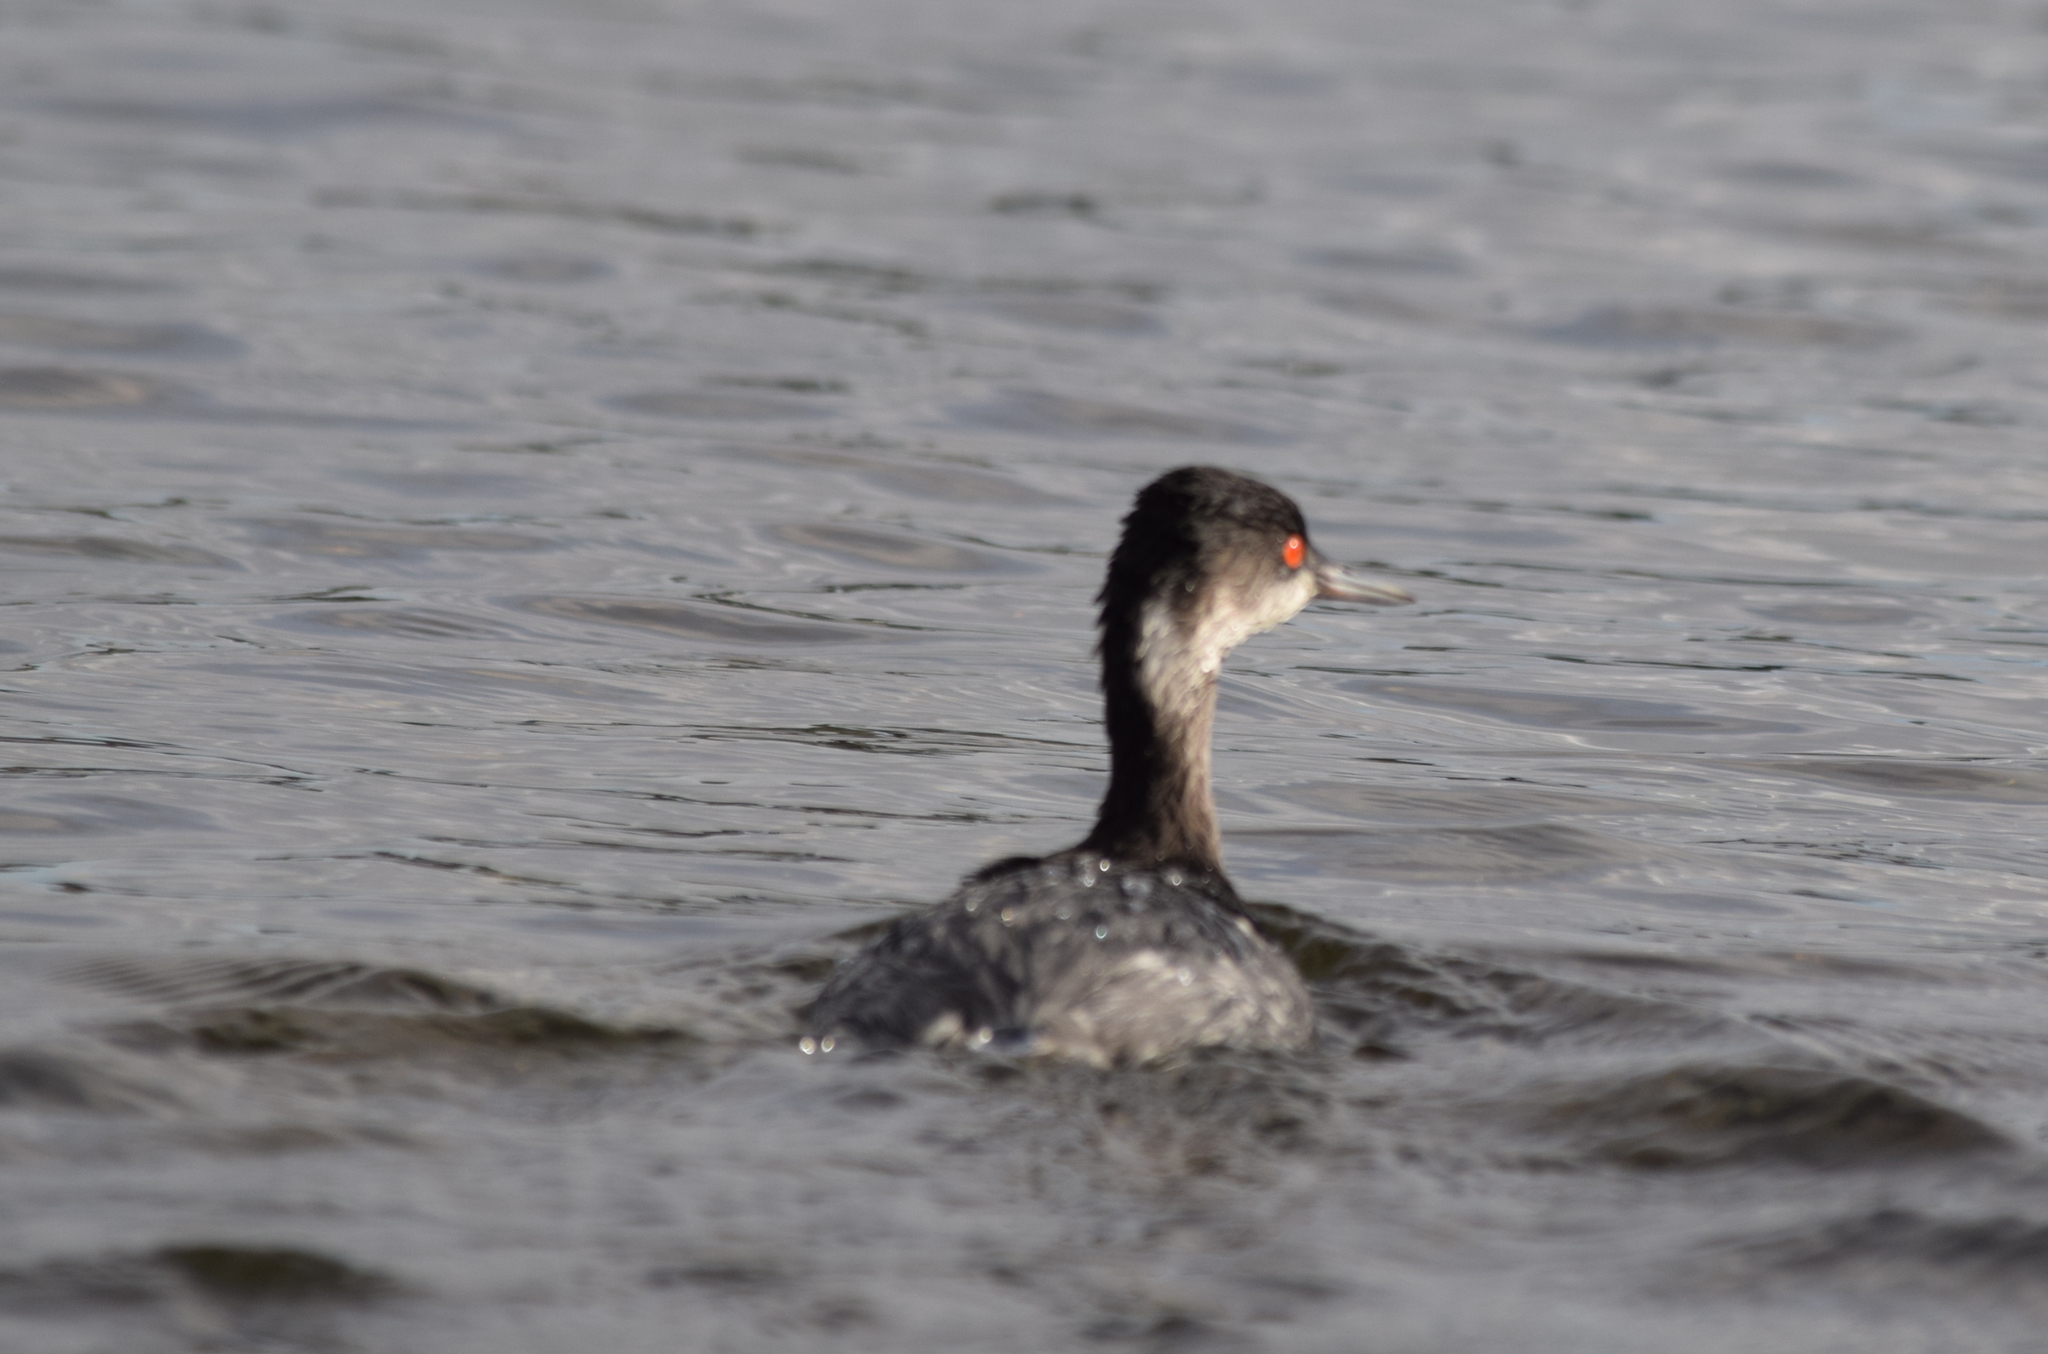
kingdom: Animalia
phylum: Chordata
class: Aves
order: Podicipediformes
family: Podicipedidae
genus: Podiceps
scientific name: Podiceps nigricollis
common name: Black-necked grebe
